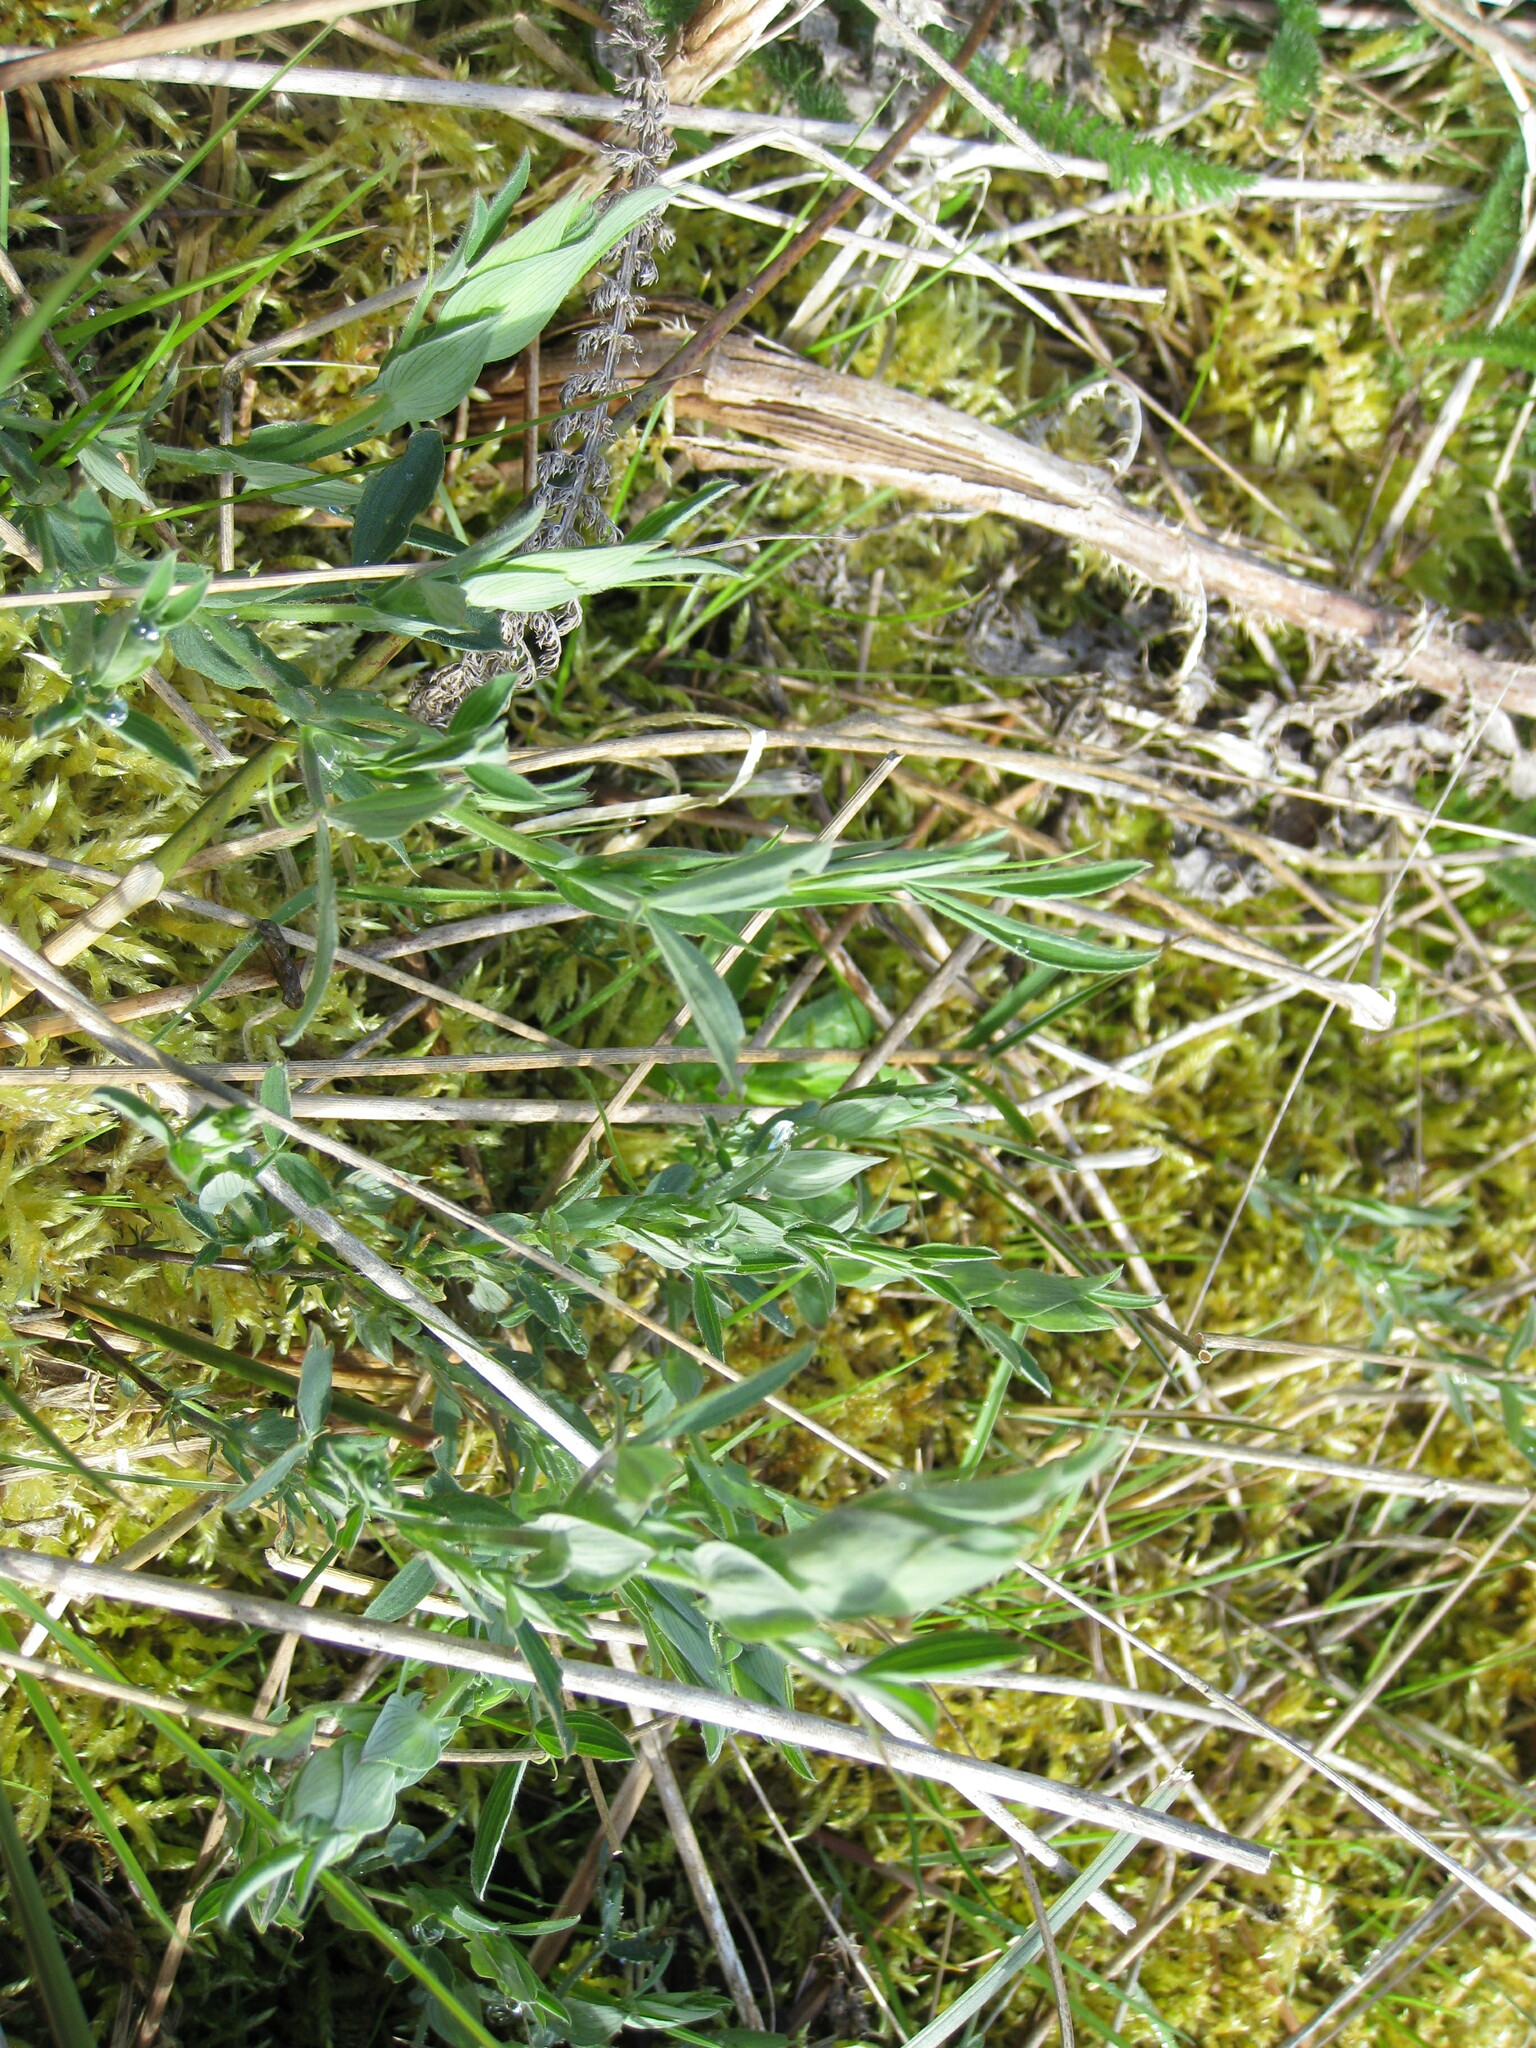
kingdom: Plantae
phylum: Tracheophyta
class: Magnoliopsida
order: Fabales
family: Fabaceae
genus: Lathyrus
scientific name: Lathyrus pratensis
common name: Meadow vetchling
